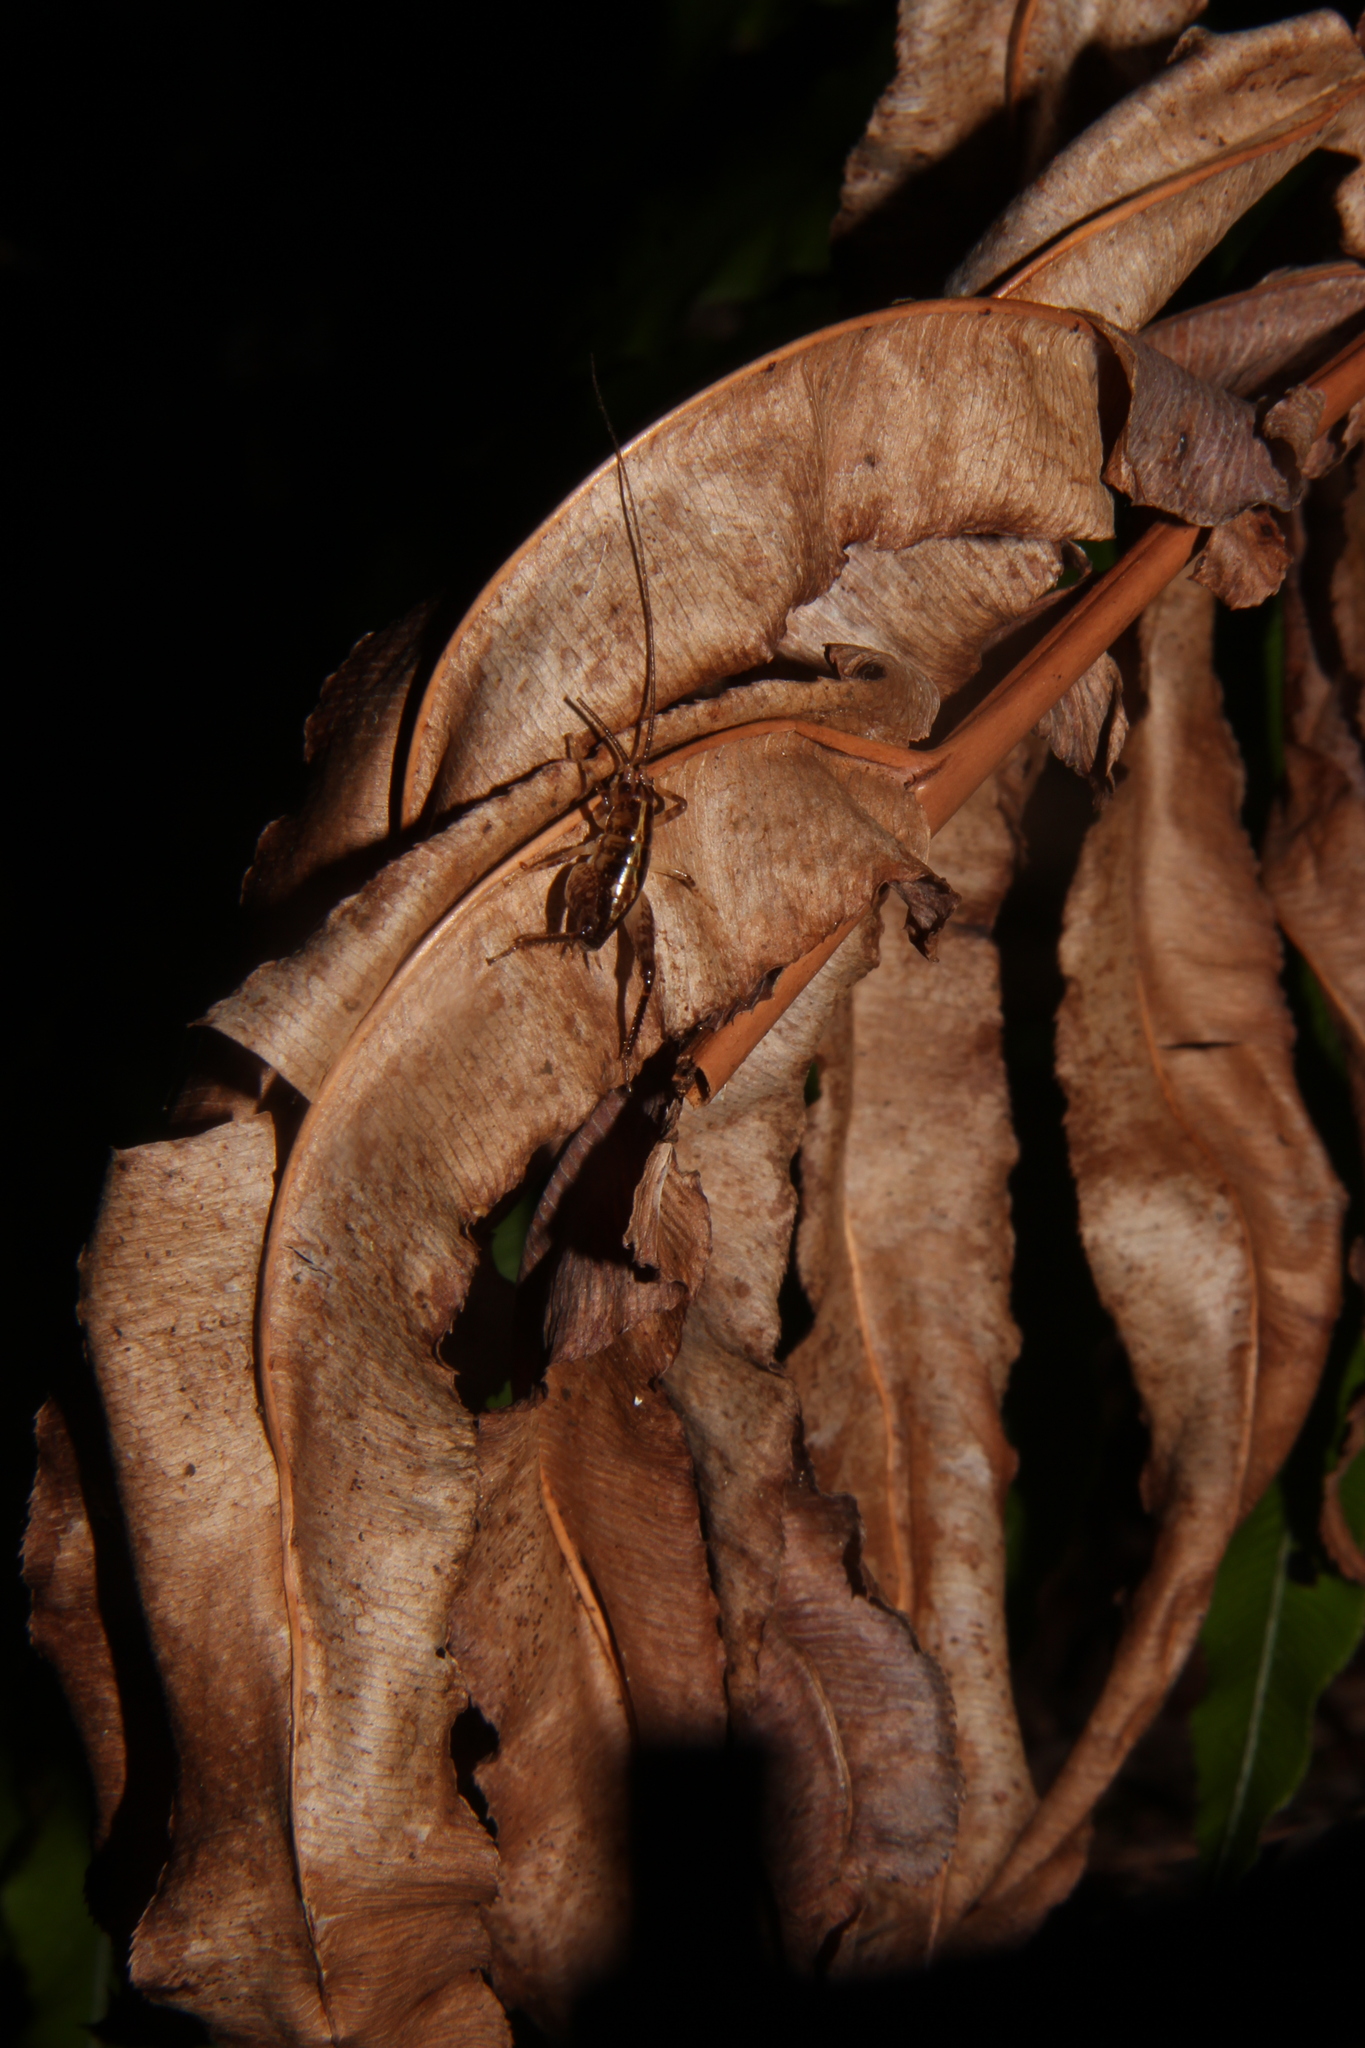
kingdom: Animalia
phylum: Arthropoda
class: Insecta
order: Orthoptera
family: Rhaphidophoridae
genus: Talitropsis
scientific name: Talitropsis sedilloti
